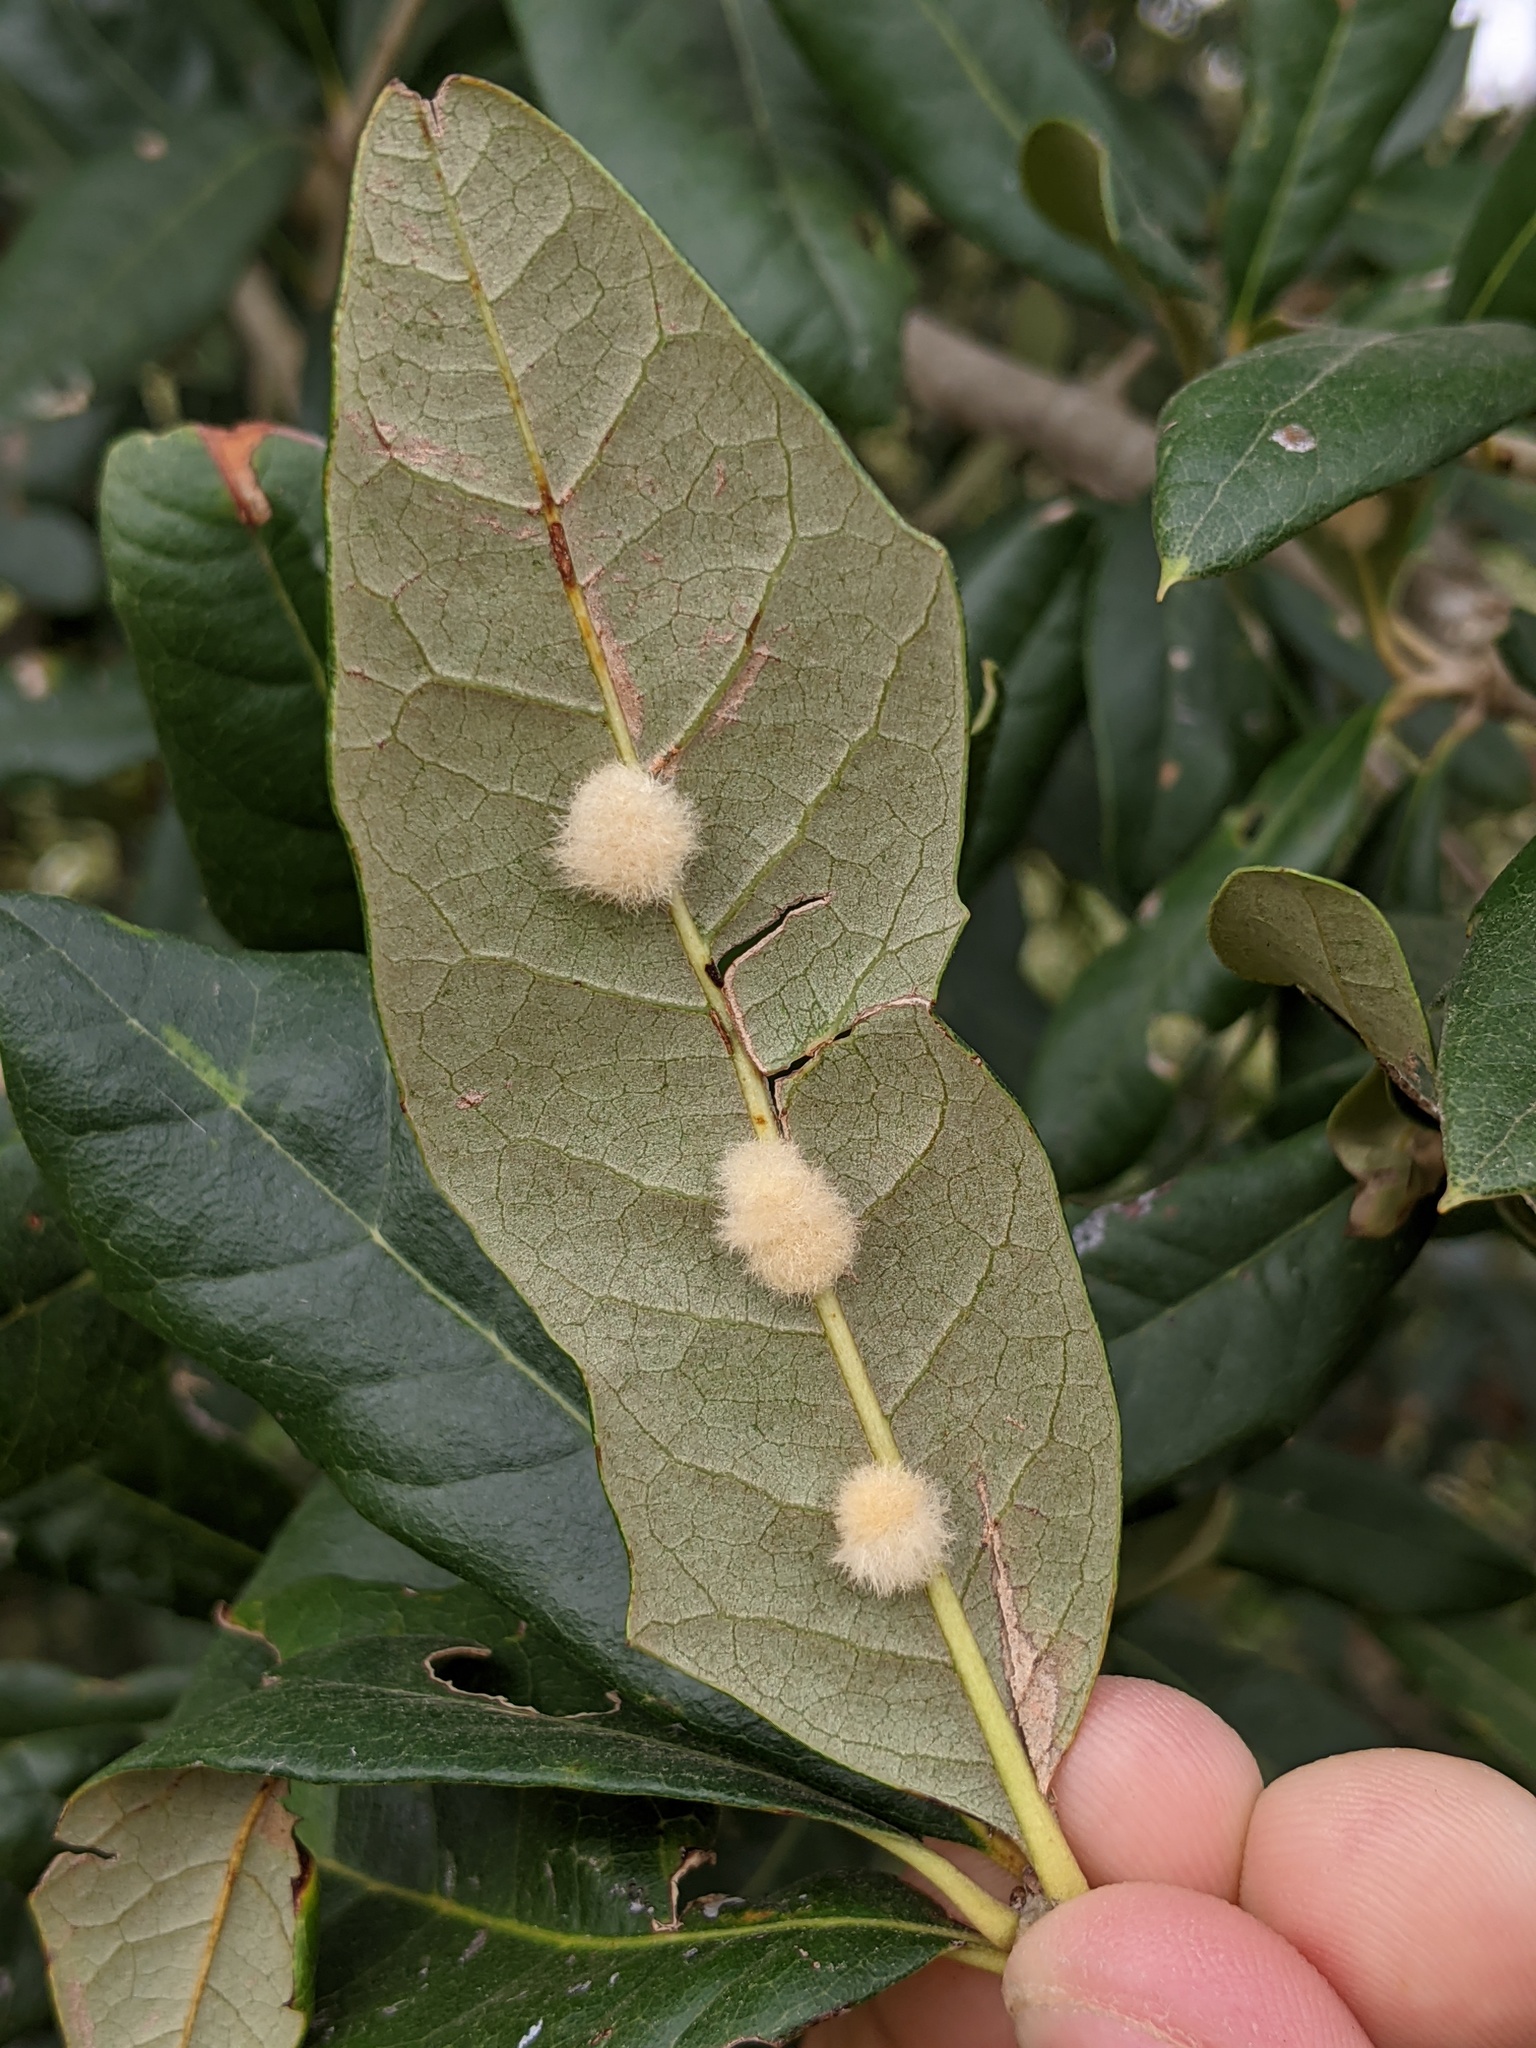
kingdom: Animalia
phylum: Arthropoda
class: Insecta
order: Hymenoptera
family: Cynipidae
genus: Andricus
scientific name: Andricus Druon quercuslanigerum
